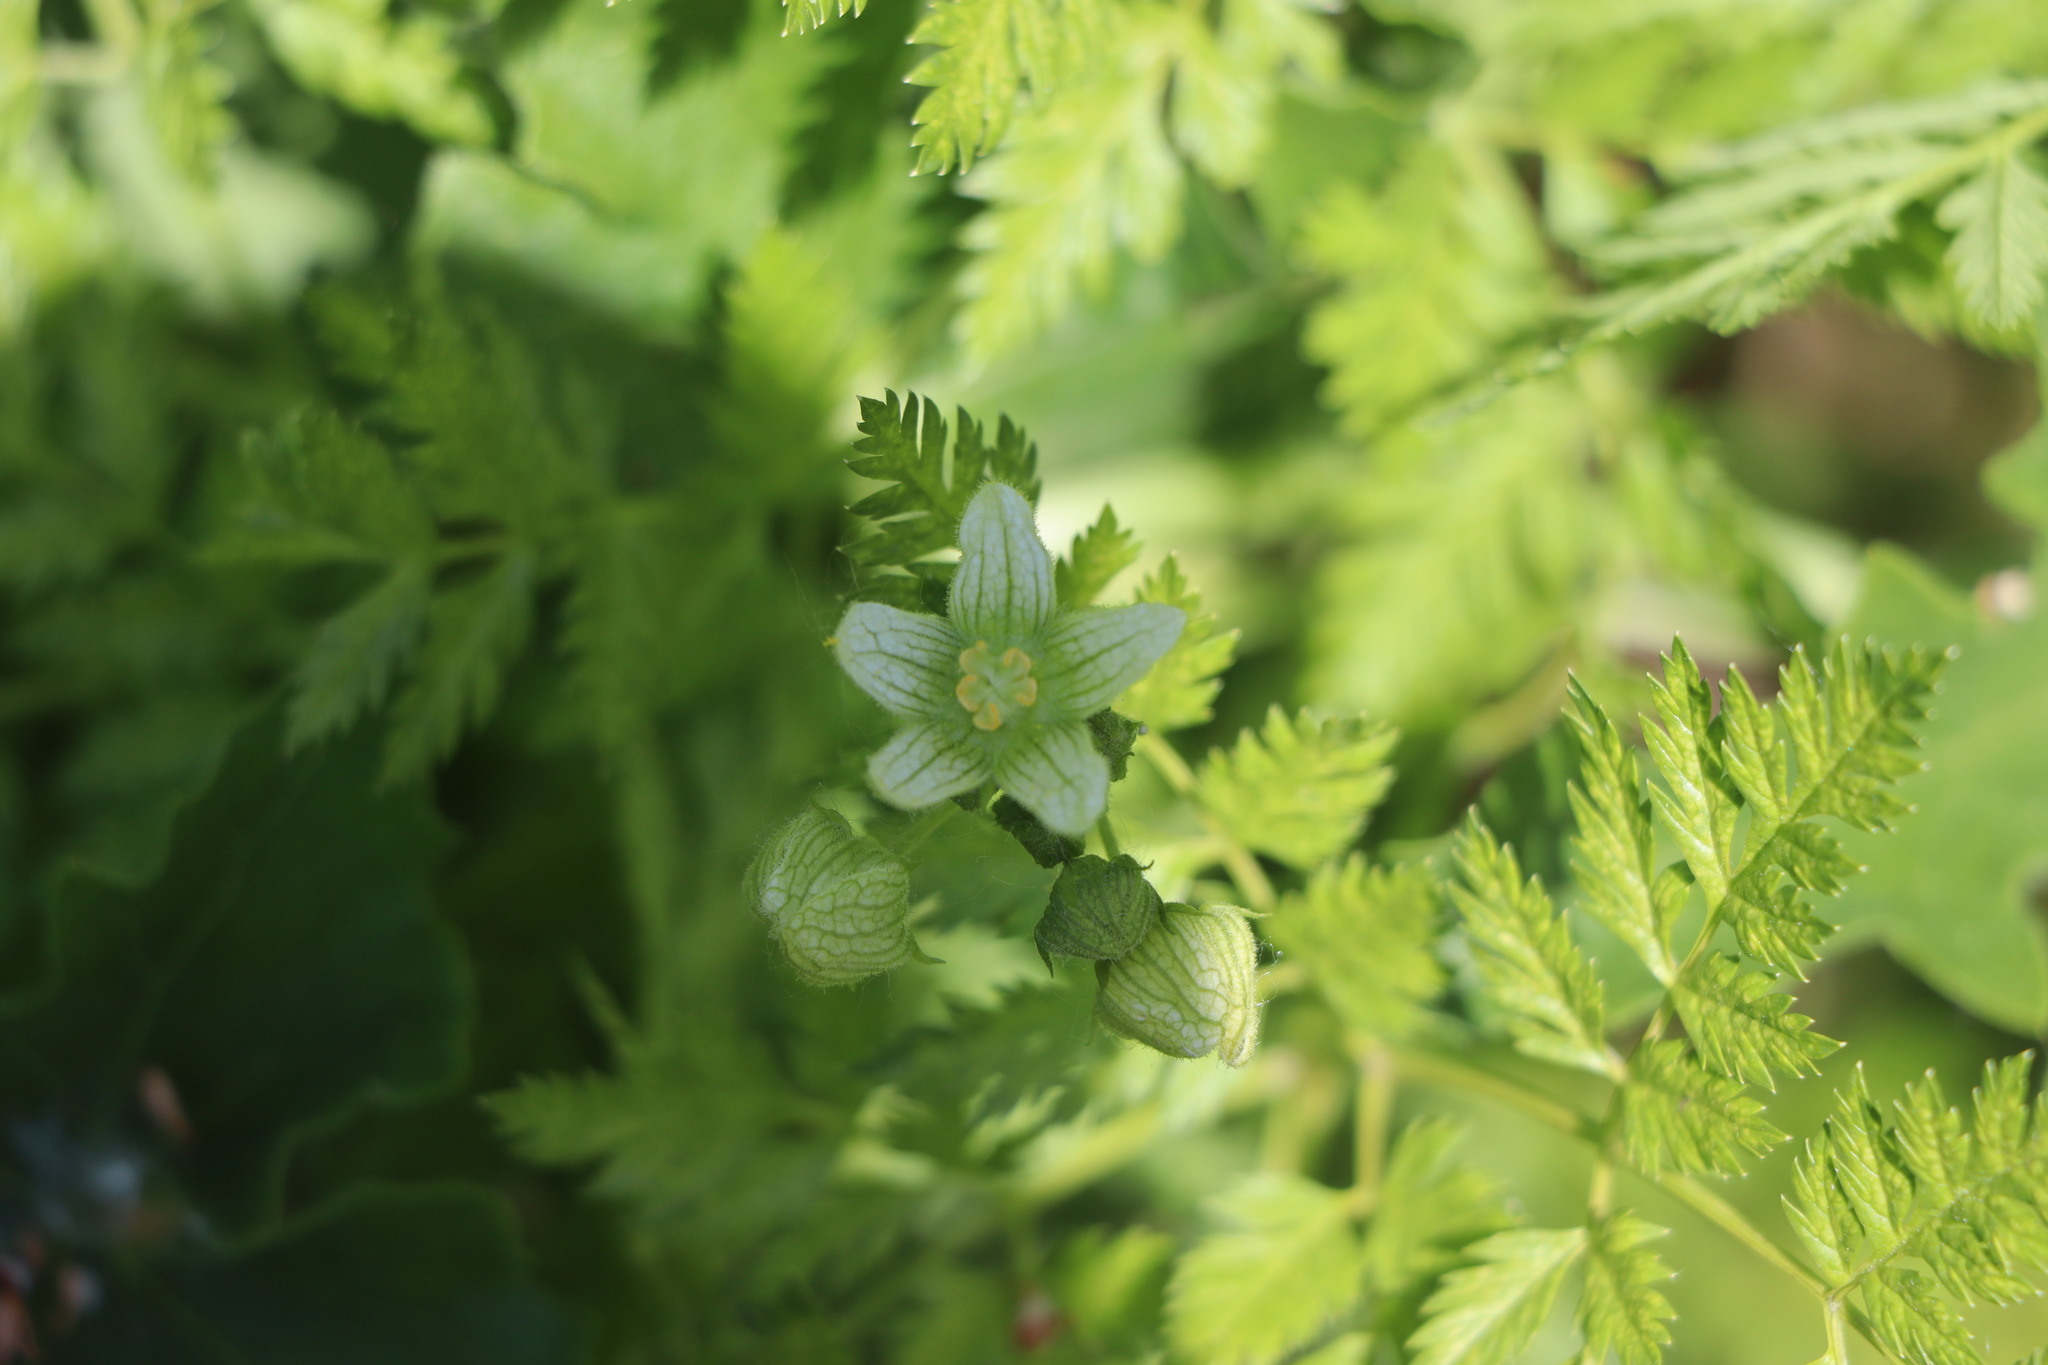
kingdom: Plantae
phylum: Tracheophyta
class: Magnoliopsida
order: Cucurbitales
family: Cucurbitaceae
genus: Bryonia
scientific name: Bryonia cretica
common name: Cretan bryony
